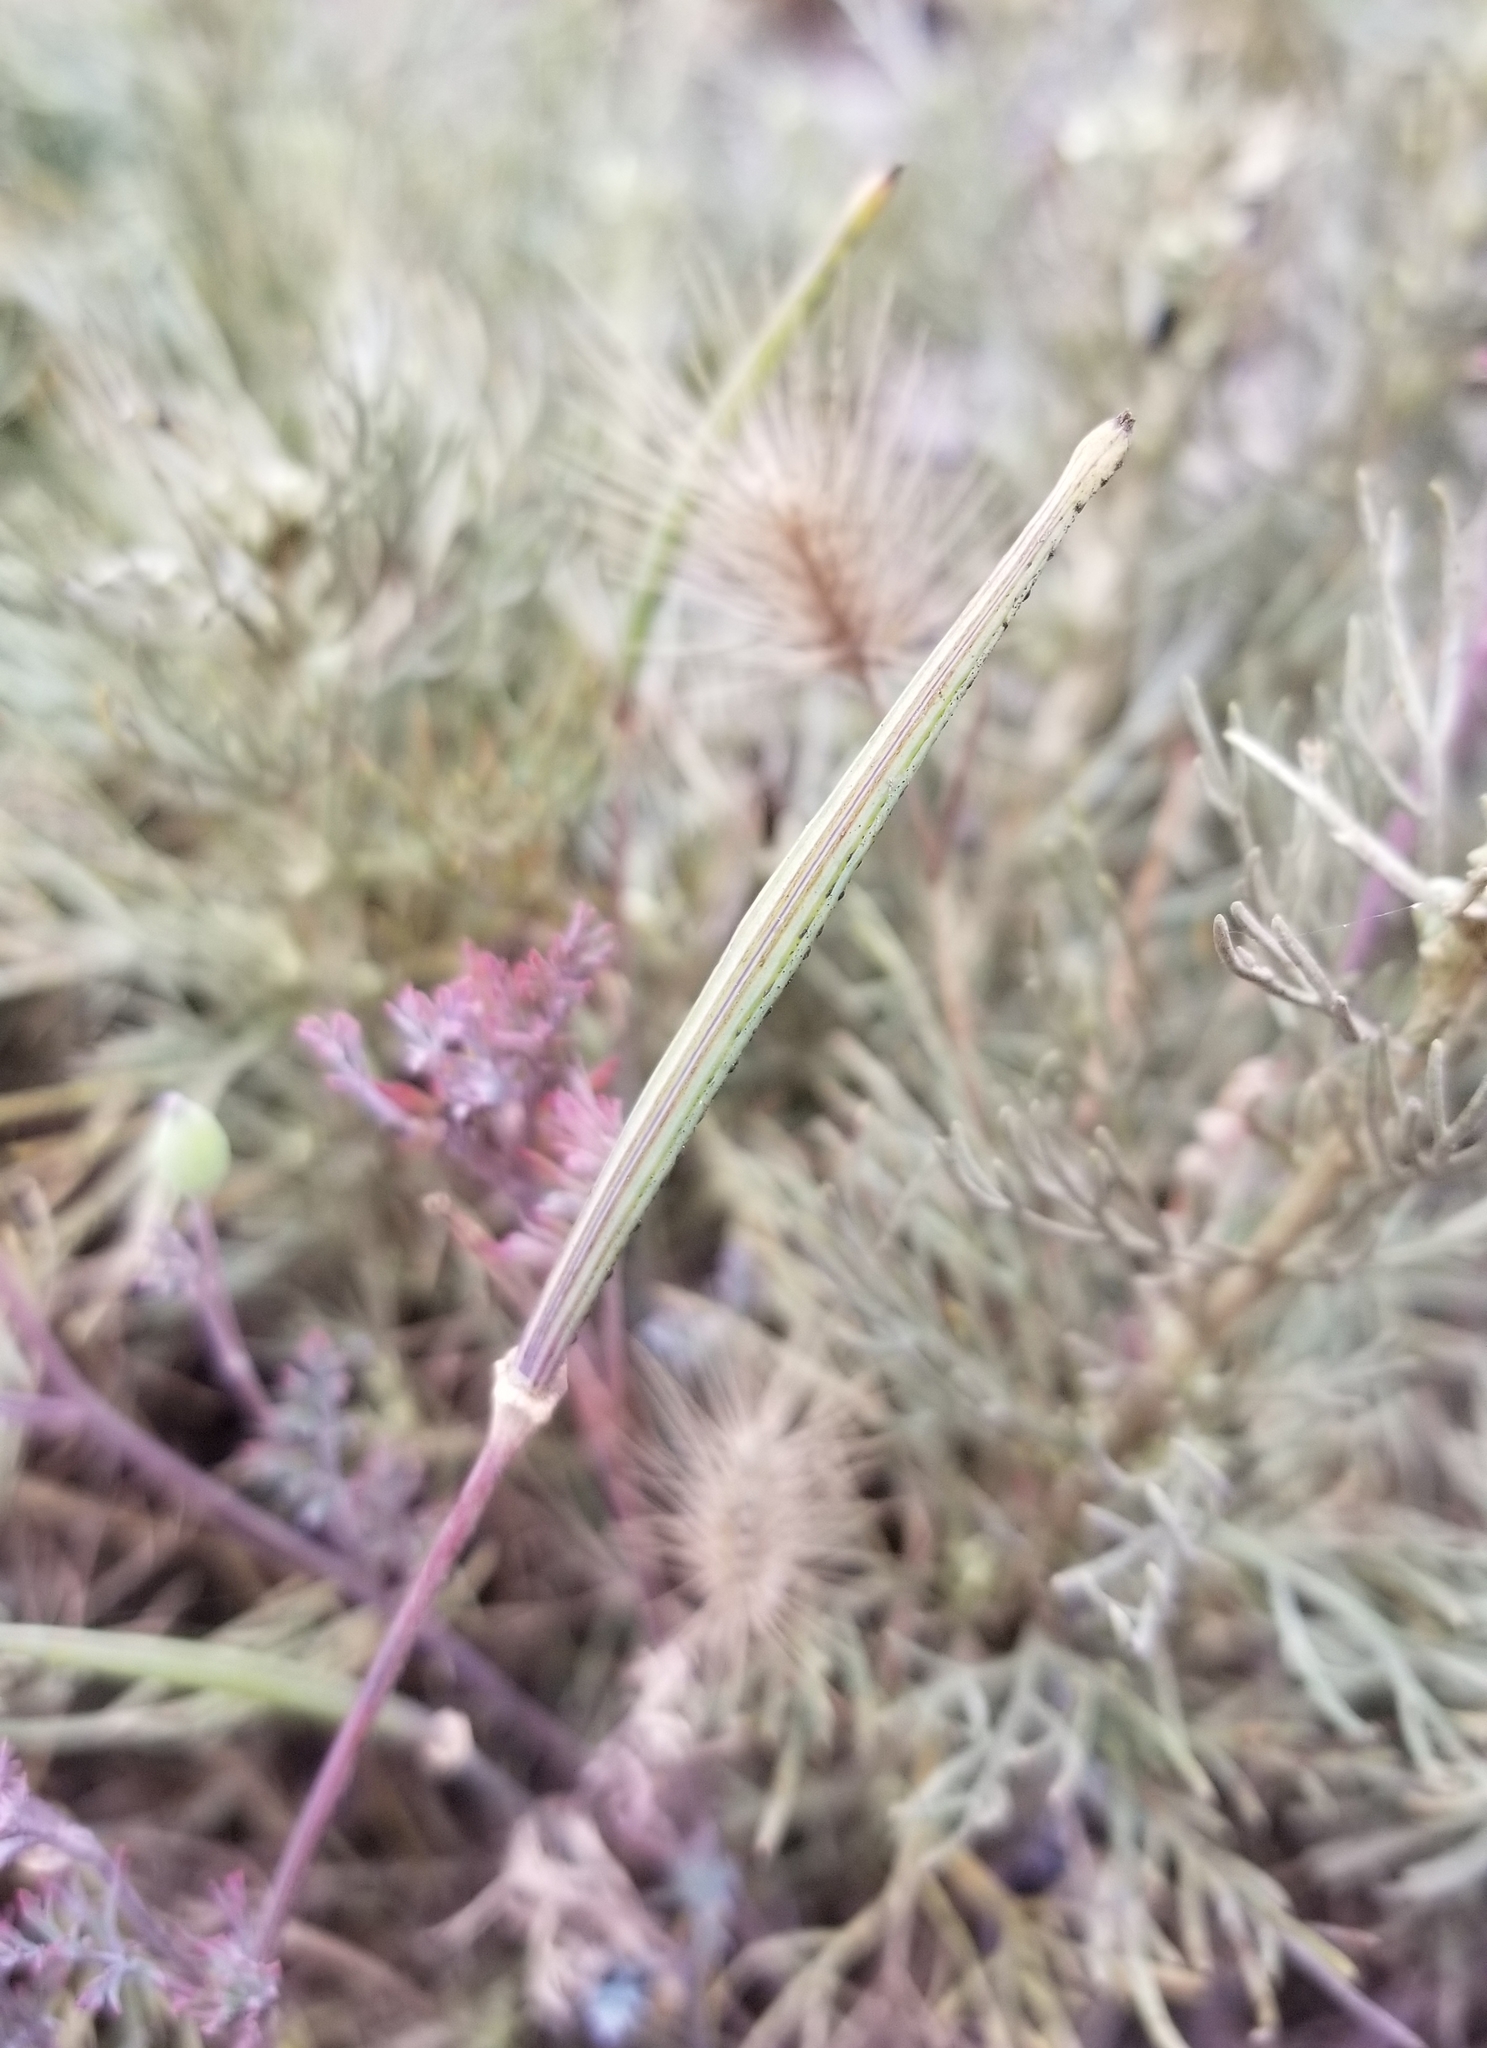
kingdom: Plantae
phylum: Tracheophyta
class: Magnoliopsida
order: Ranunculales
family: Papaveraceae
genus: Eschscholzia
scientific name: Eschscholzia caespitosa
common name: Tufted california-poppy
